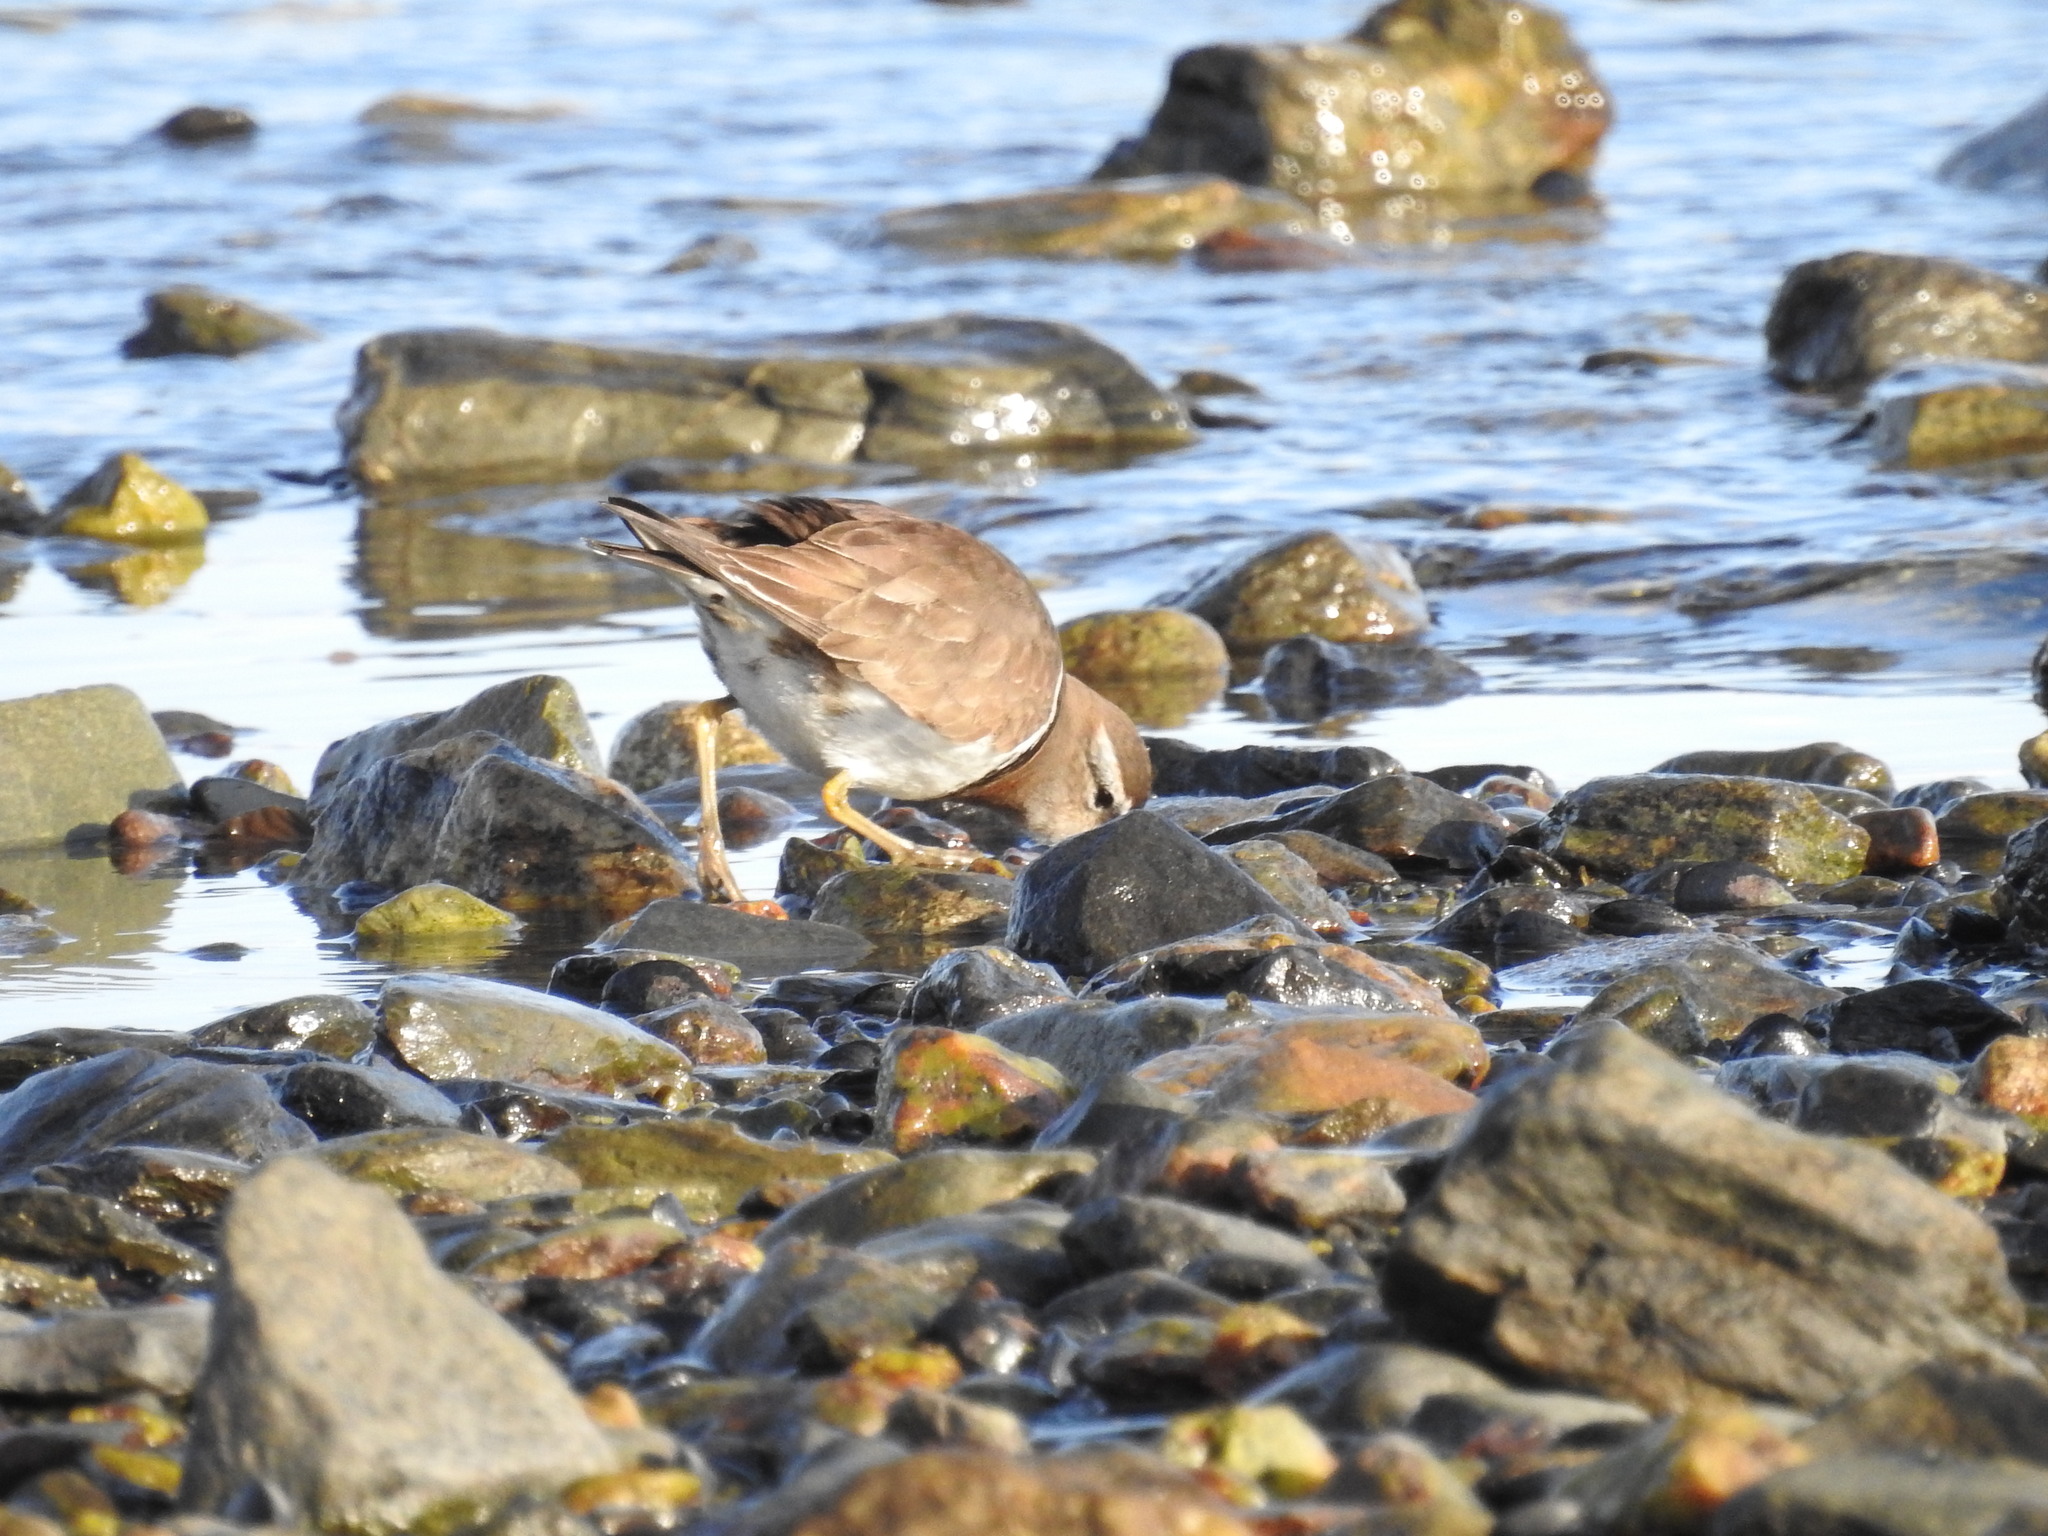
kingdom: Animalia
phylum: Chordata
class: Aves
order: Charadriiformes
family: Charadriidae
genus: Charadrius
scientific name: Charadrius modestus
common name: Rufous-chested plover
